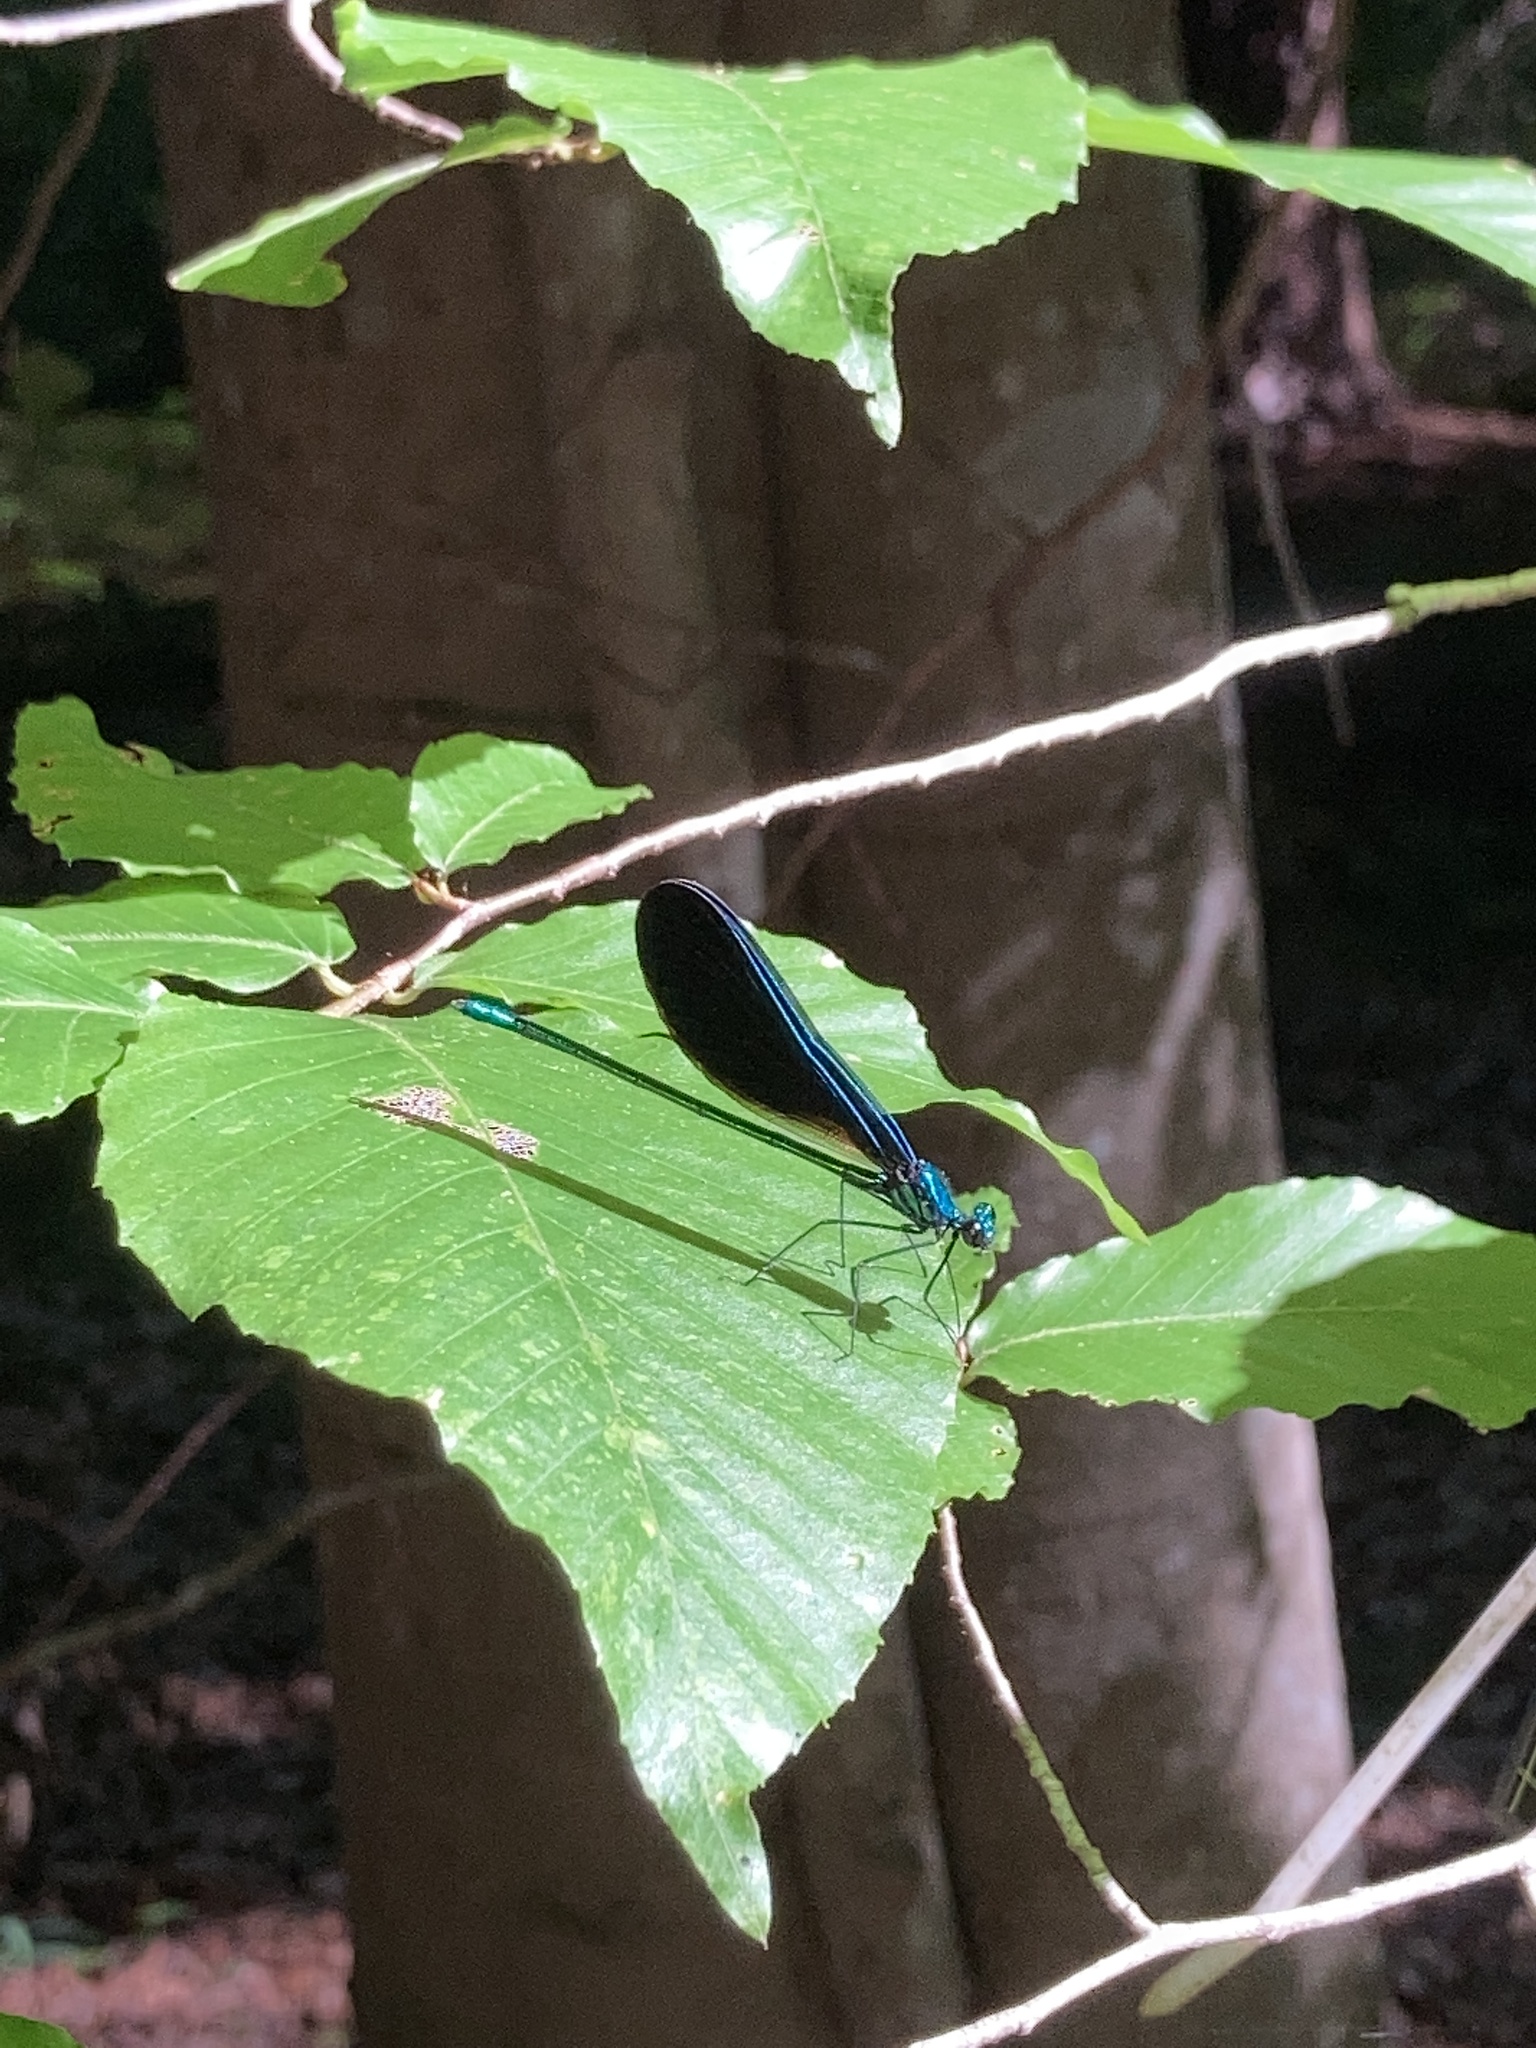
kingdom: Animalia
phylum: Arthropoda
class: Insecta
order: Odonata
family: Calopterygidae
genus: Calopteryx
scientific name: Calopteryx maculata
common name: Ebony jewelwing
